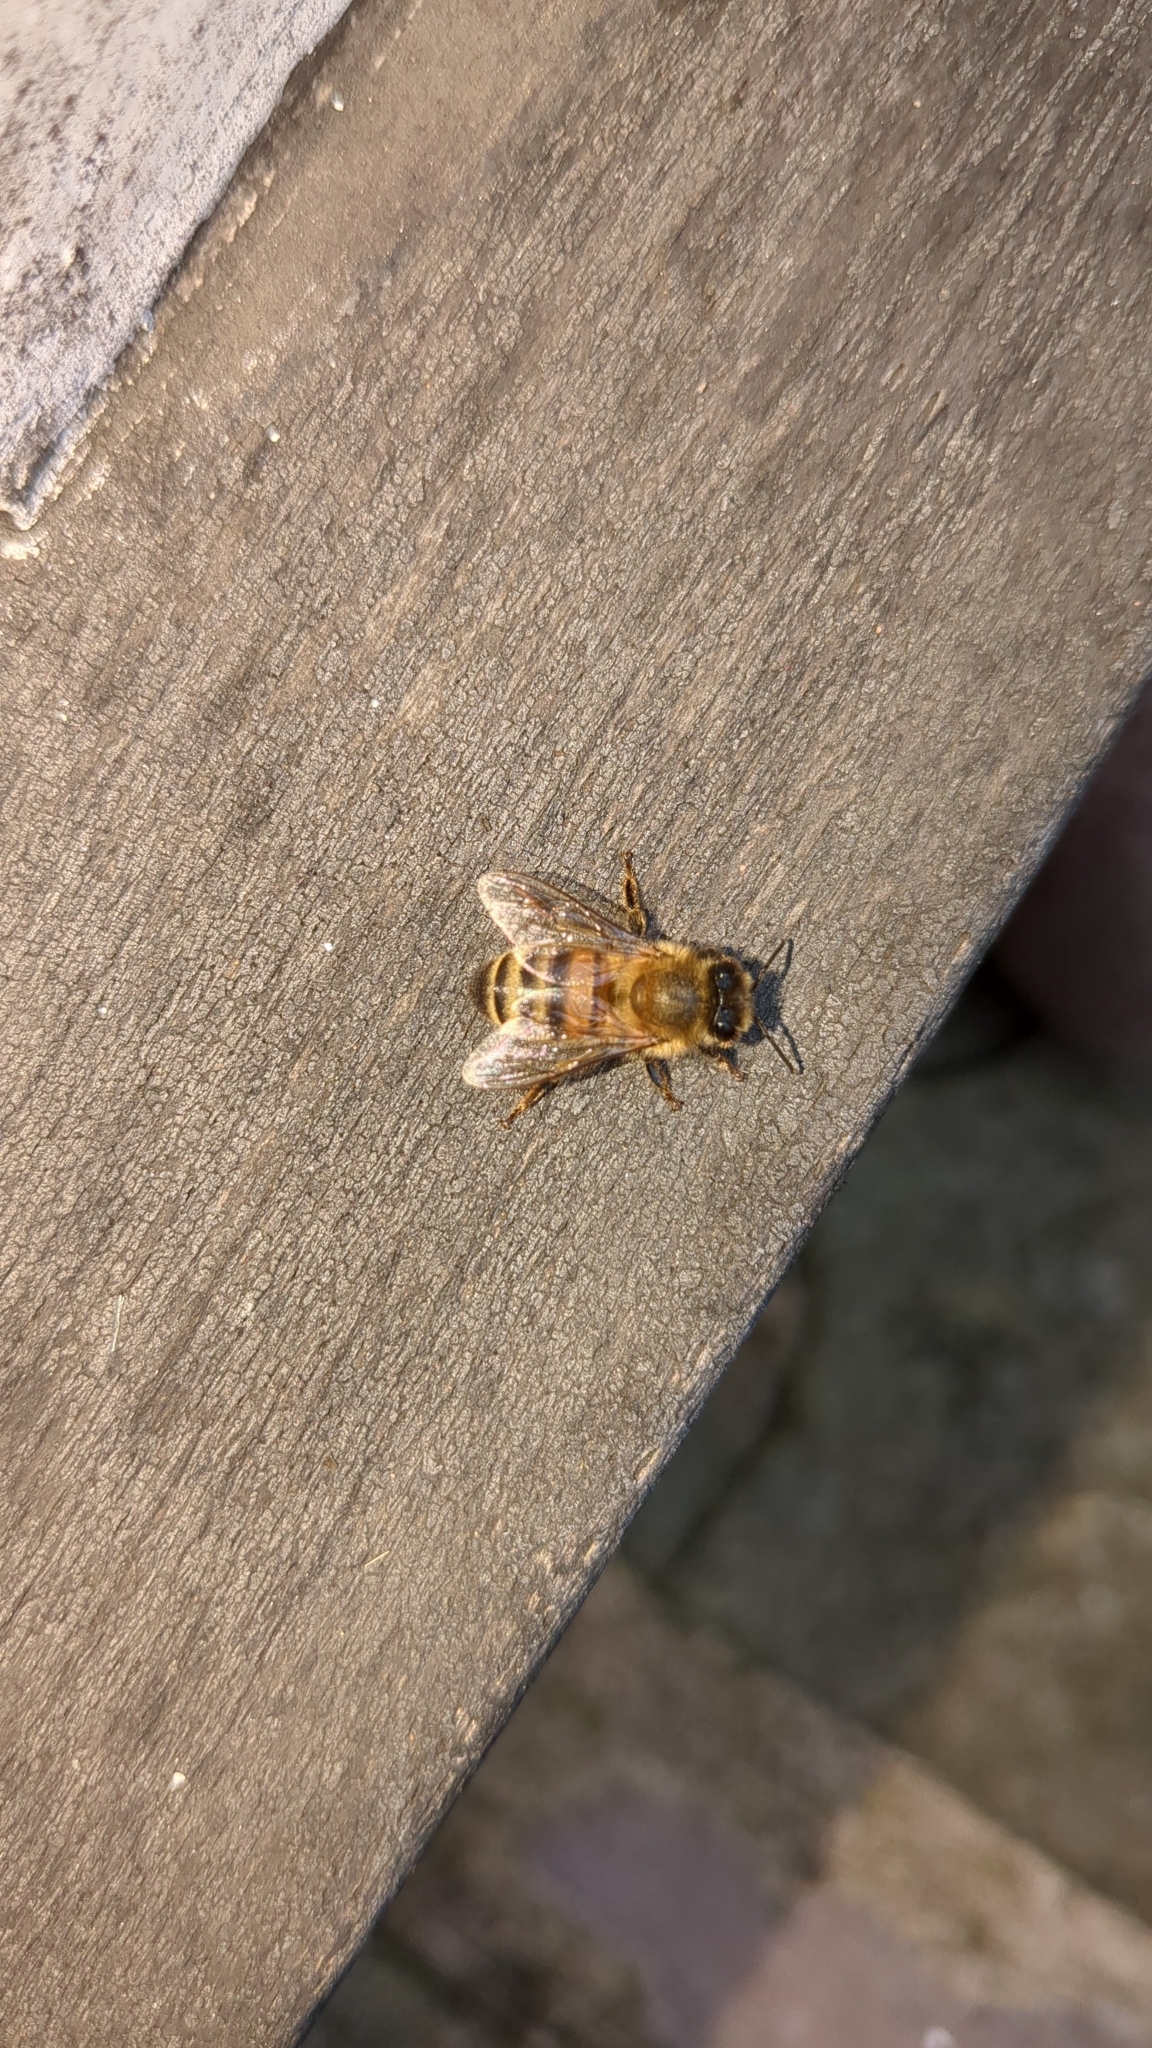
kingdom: Animalia
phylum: Arthropoda
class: Insecta
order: Hymenoptera
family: Apidae
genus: Apis
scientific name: Apis mellifera
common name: Honey bee
